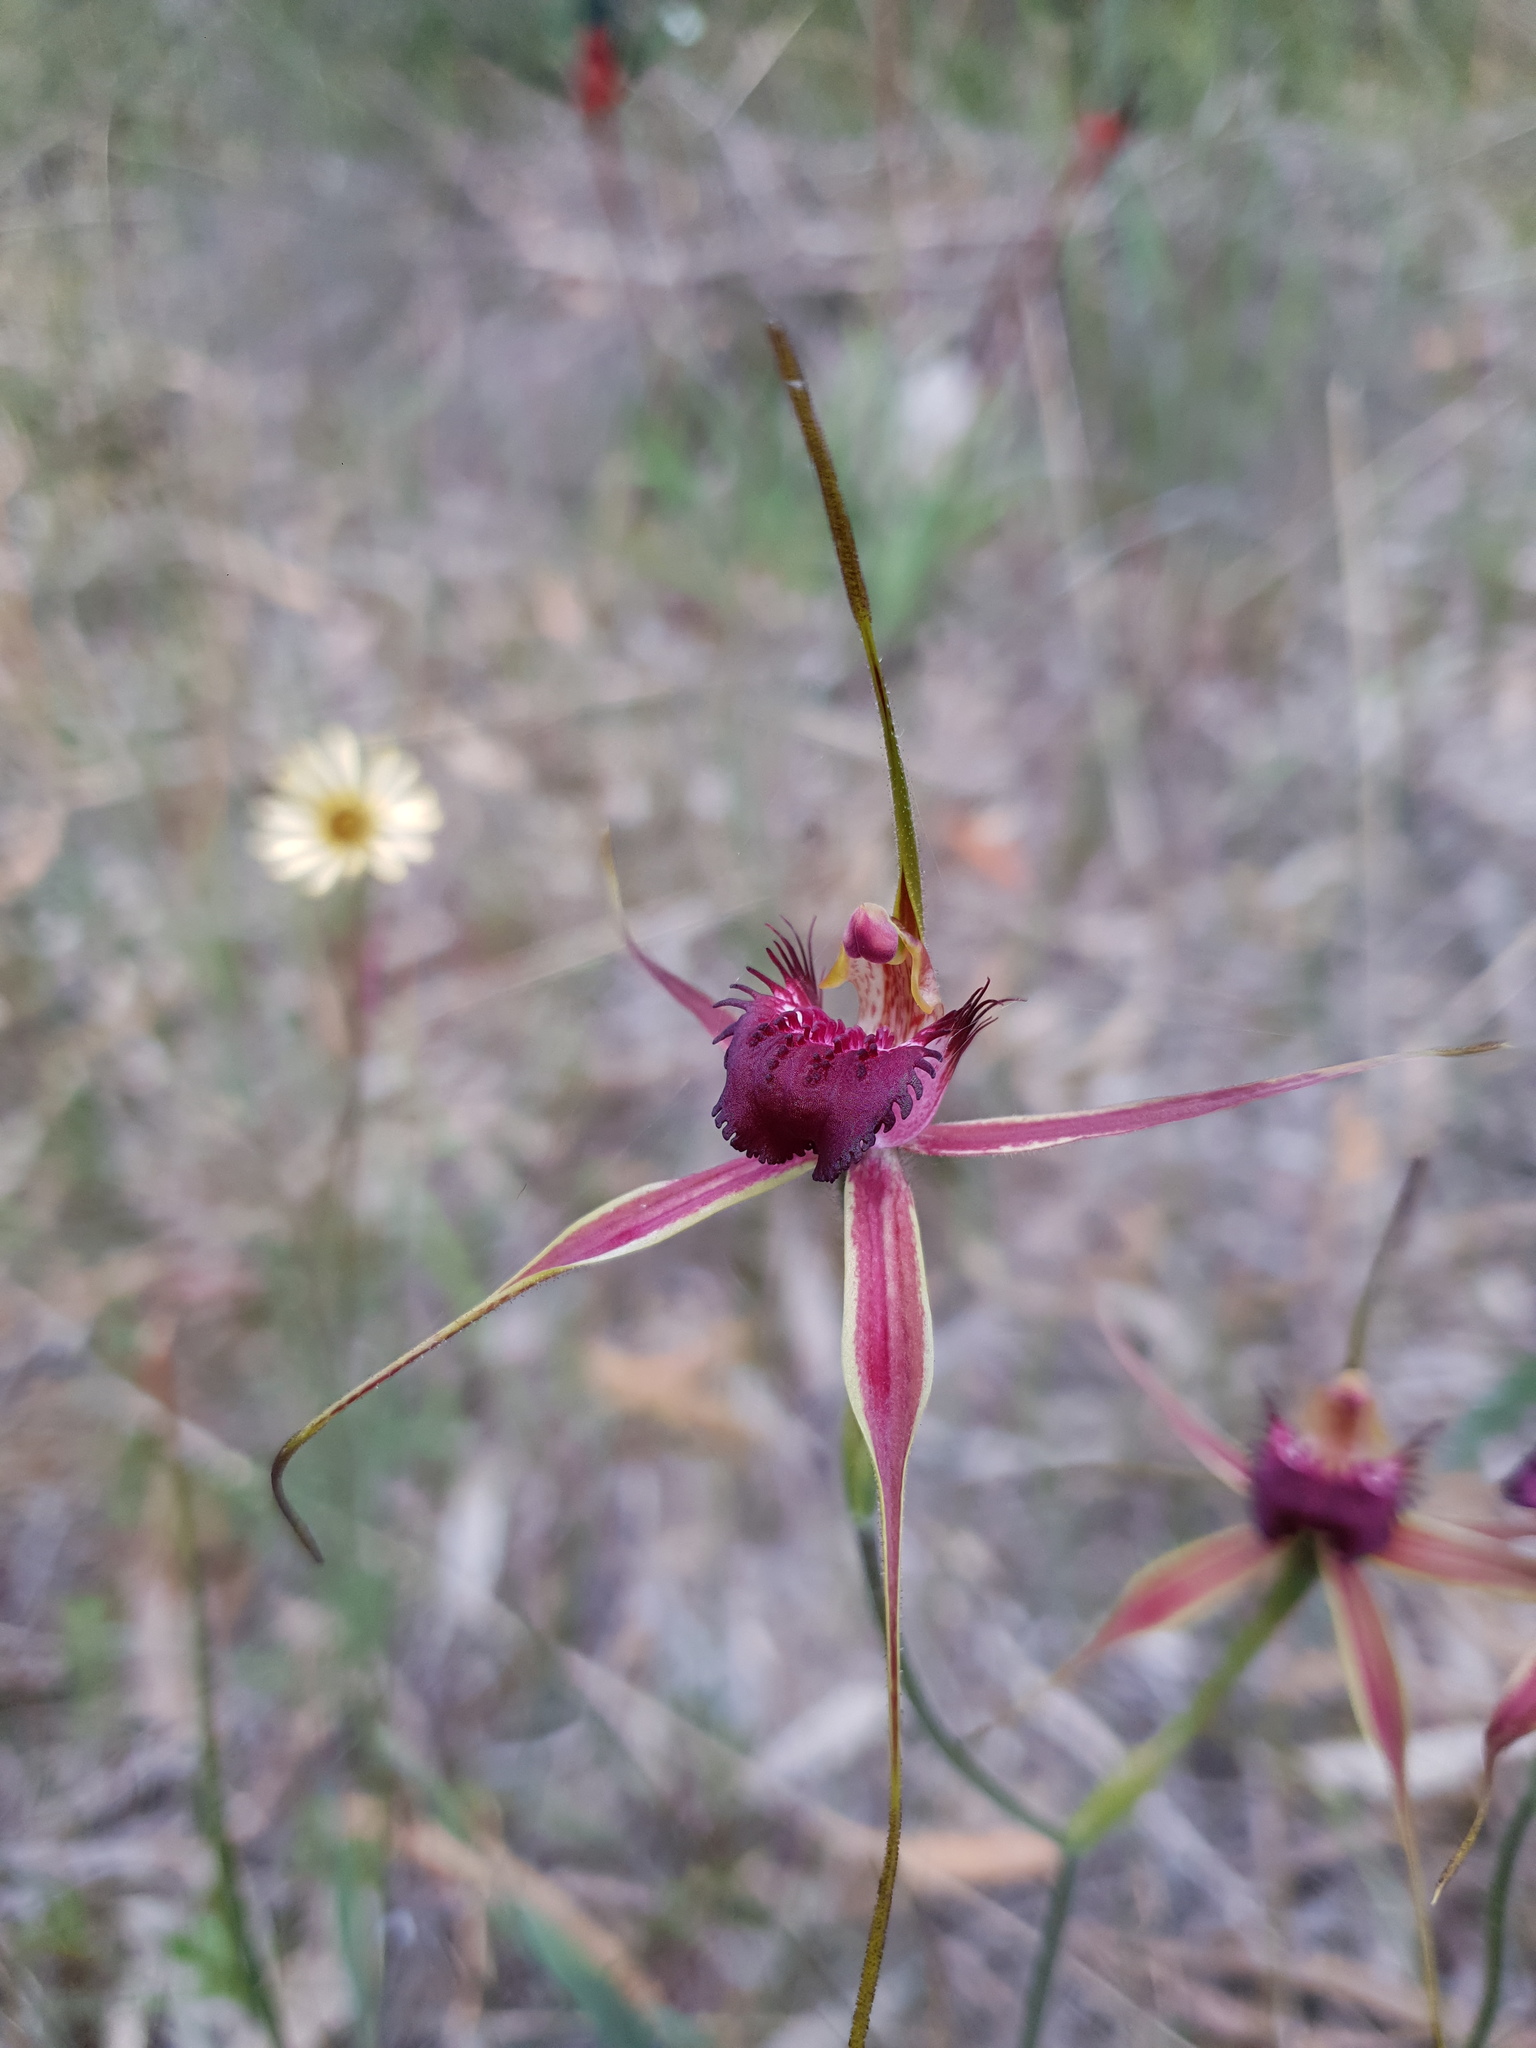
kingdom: Plantae
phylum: Tracheophyta
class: Liliopsida
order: Asparagales
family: Orchidaceae
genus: Caladenia
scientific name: Caladenia arenicola
